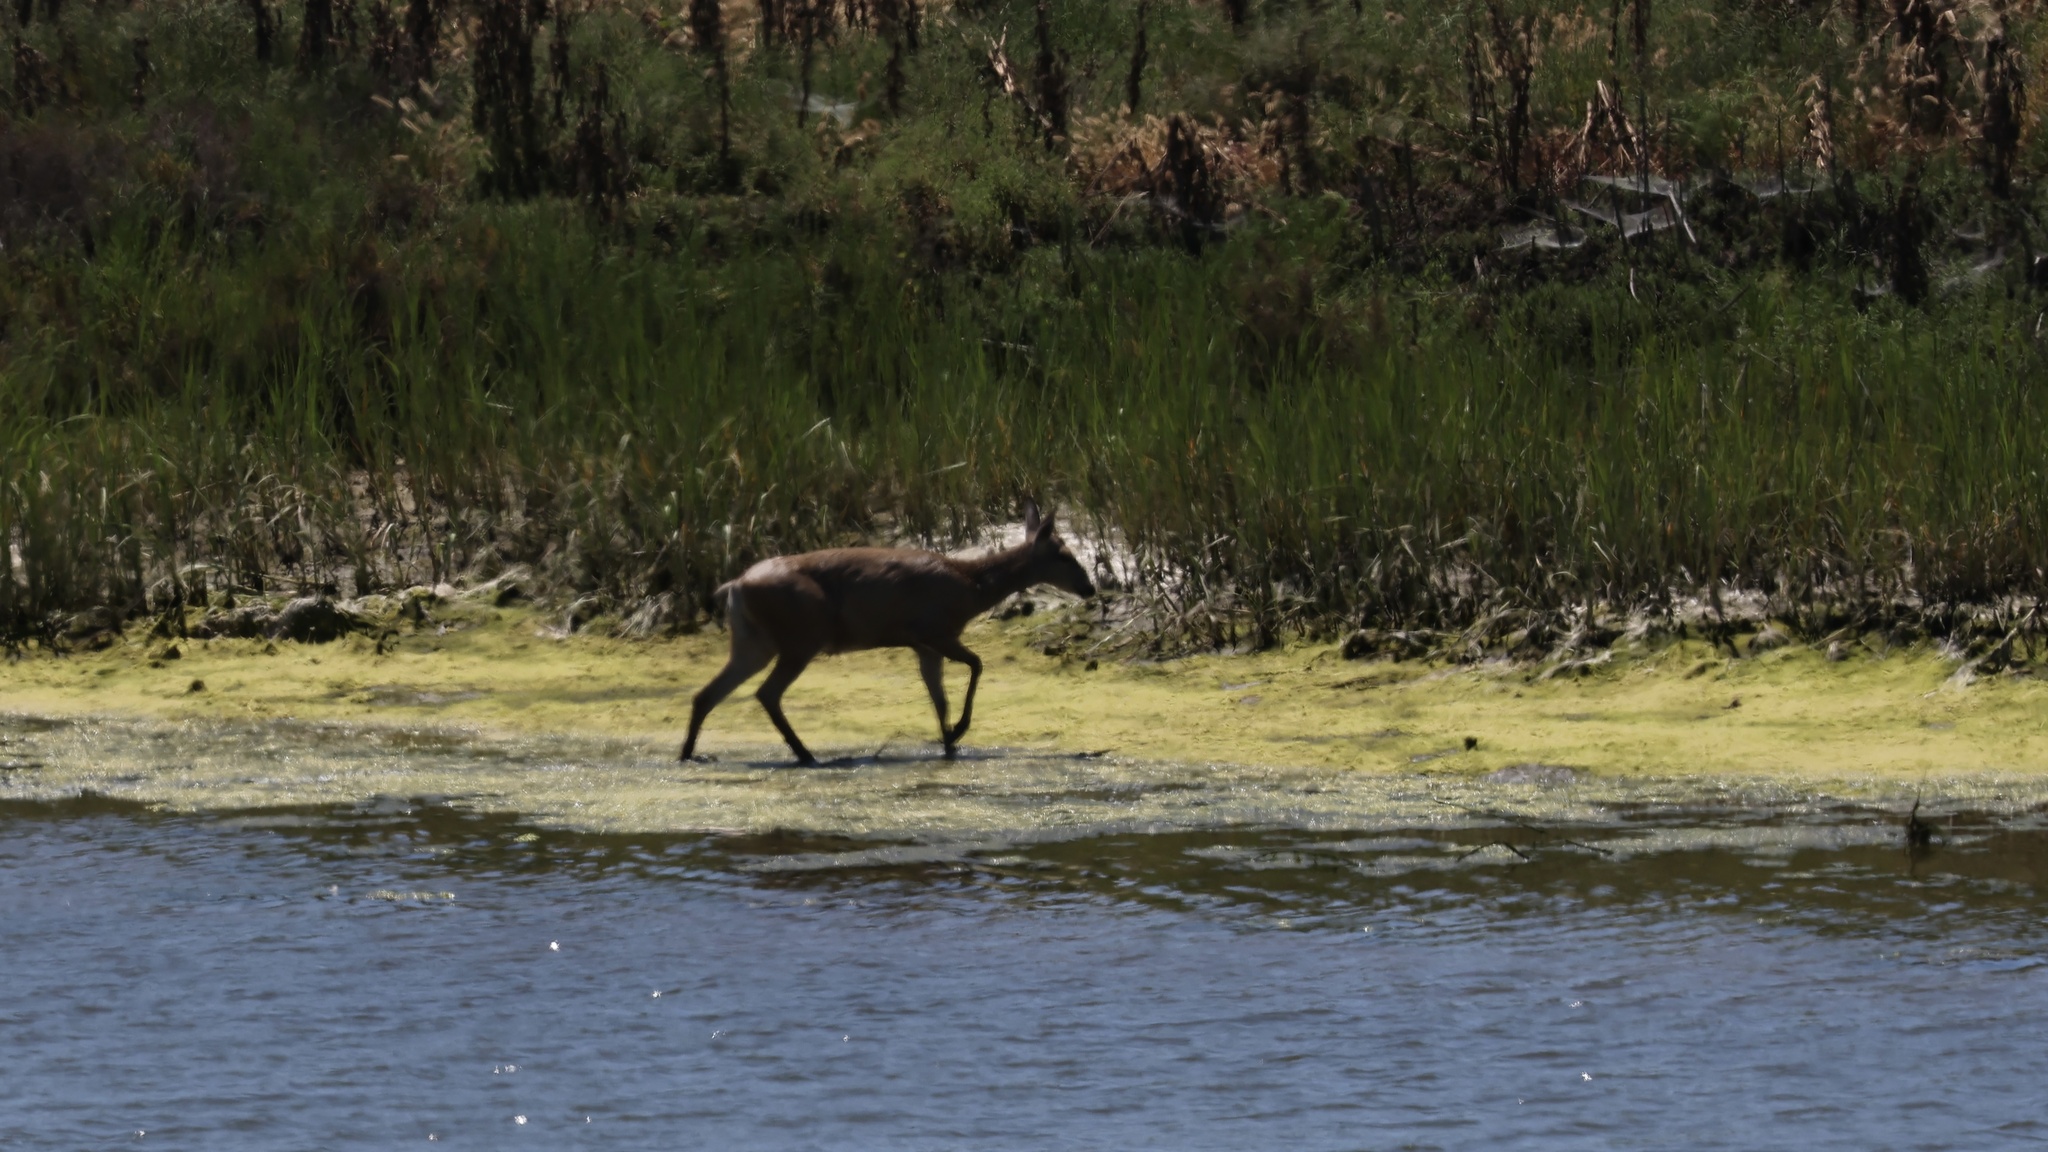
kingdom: Animalia
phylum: Chordata
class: Mammalia
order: Artiodactyla
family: Cervidae
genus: Odocoileus
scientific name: Odocoileus hemionus
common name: Mule deer
